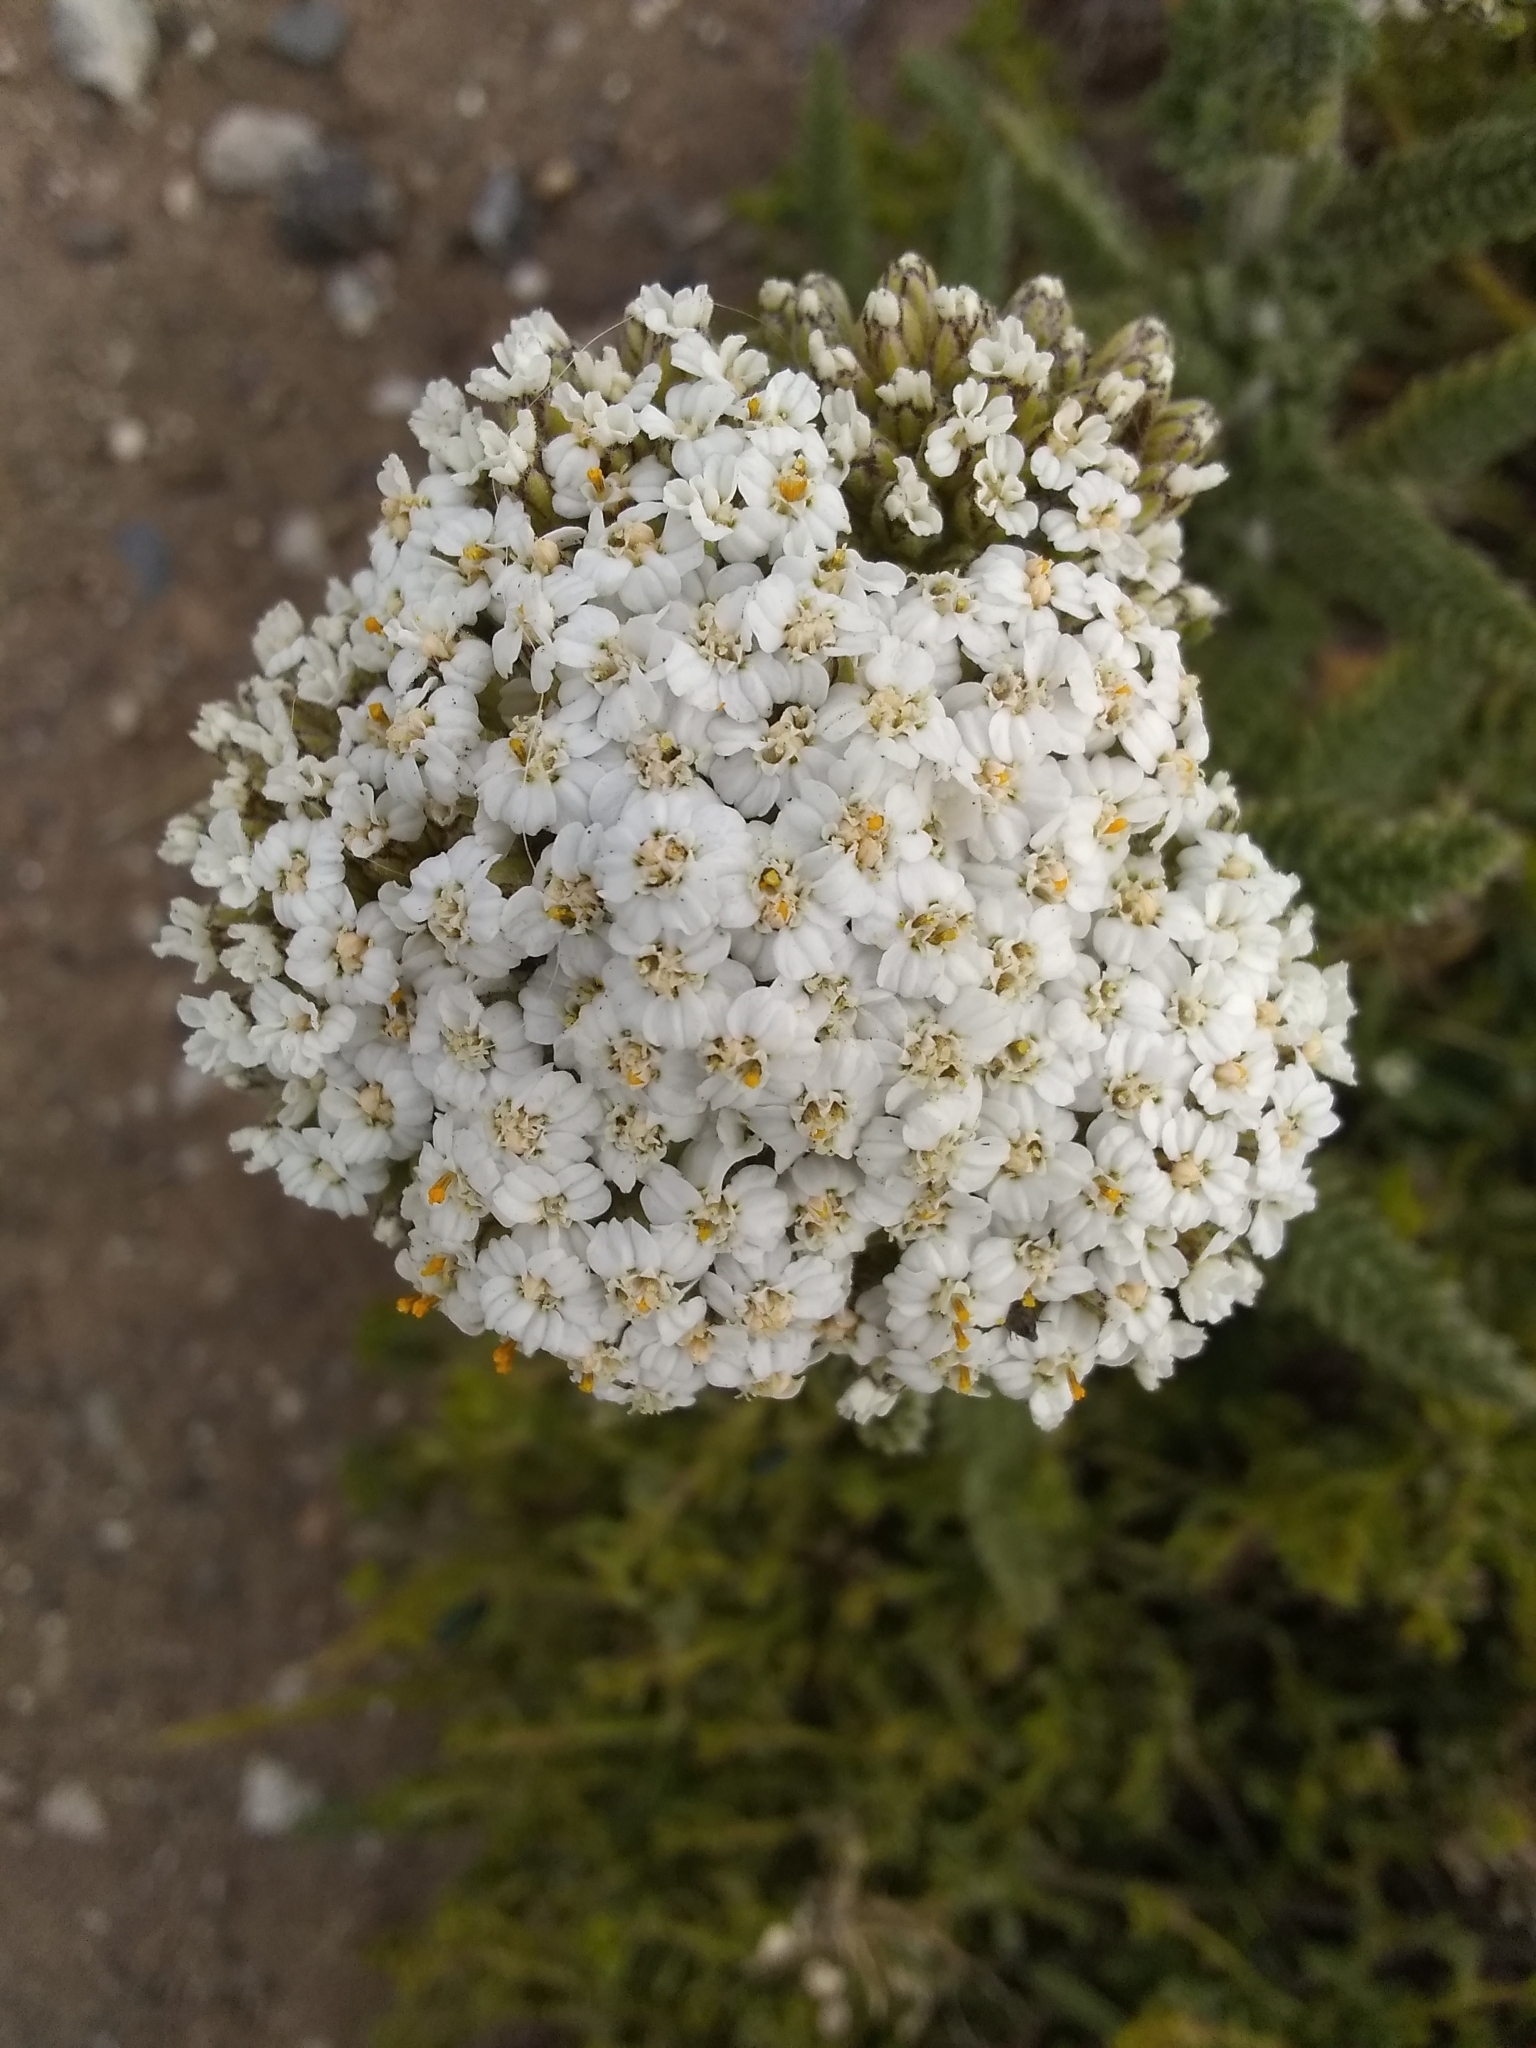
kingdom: Plantae
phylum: Tracheophyta
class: Magnoliopsida
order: Asterales
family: Asteraceae
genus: Achillea
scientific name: Achillea millefolium
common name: Yarrow
